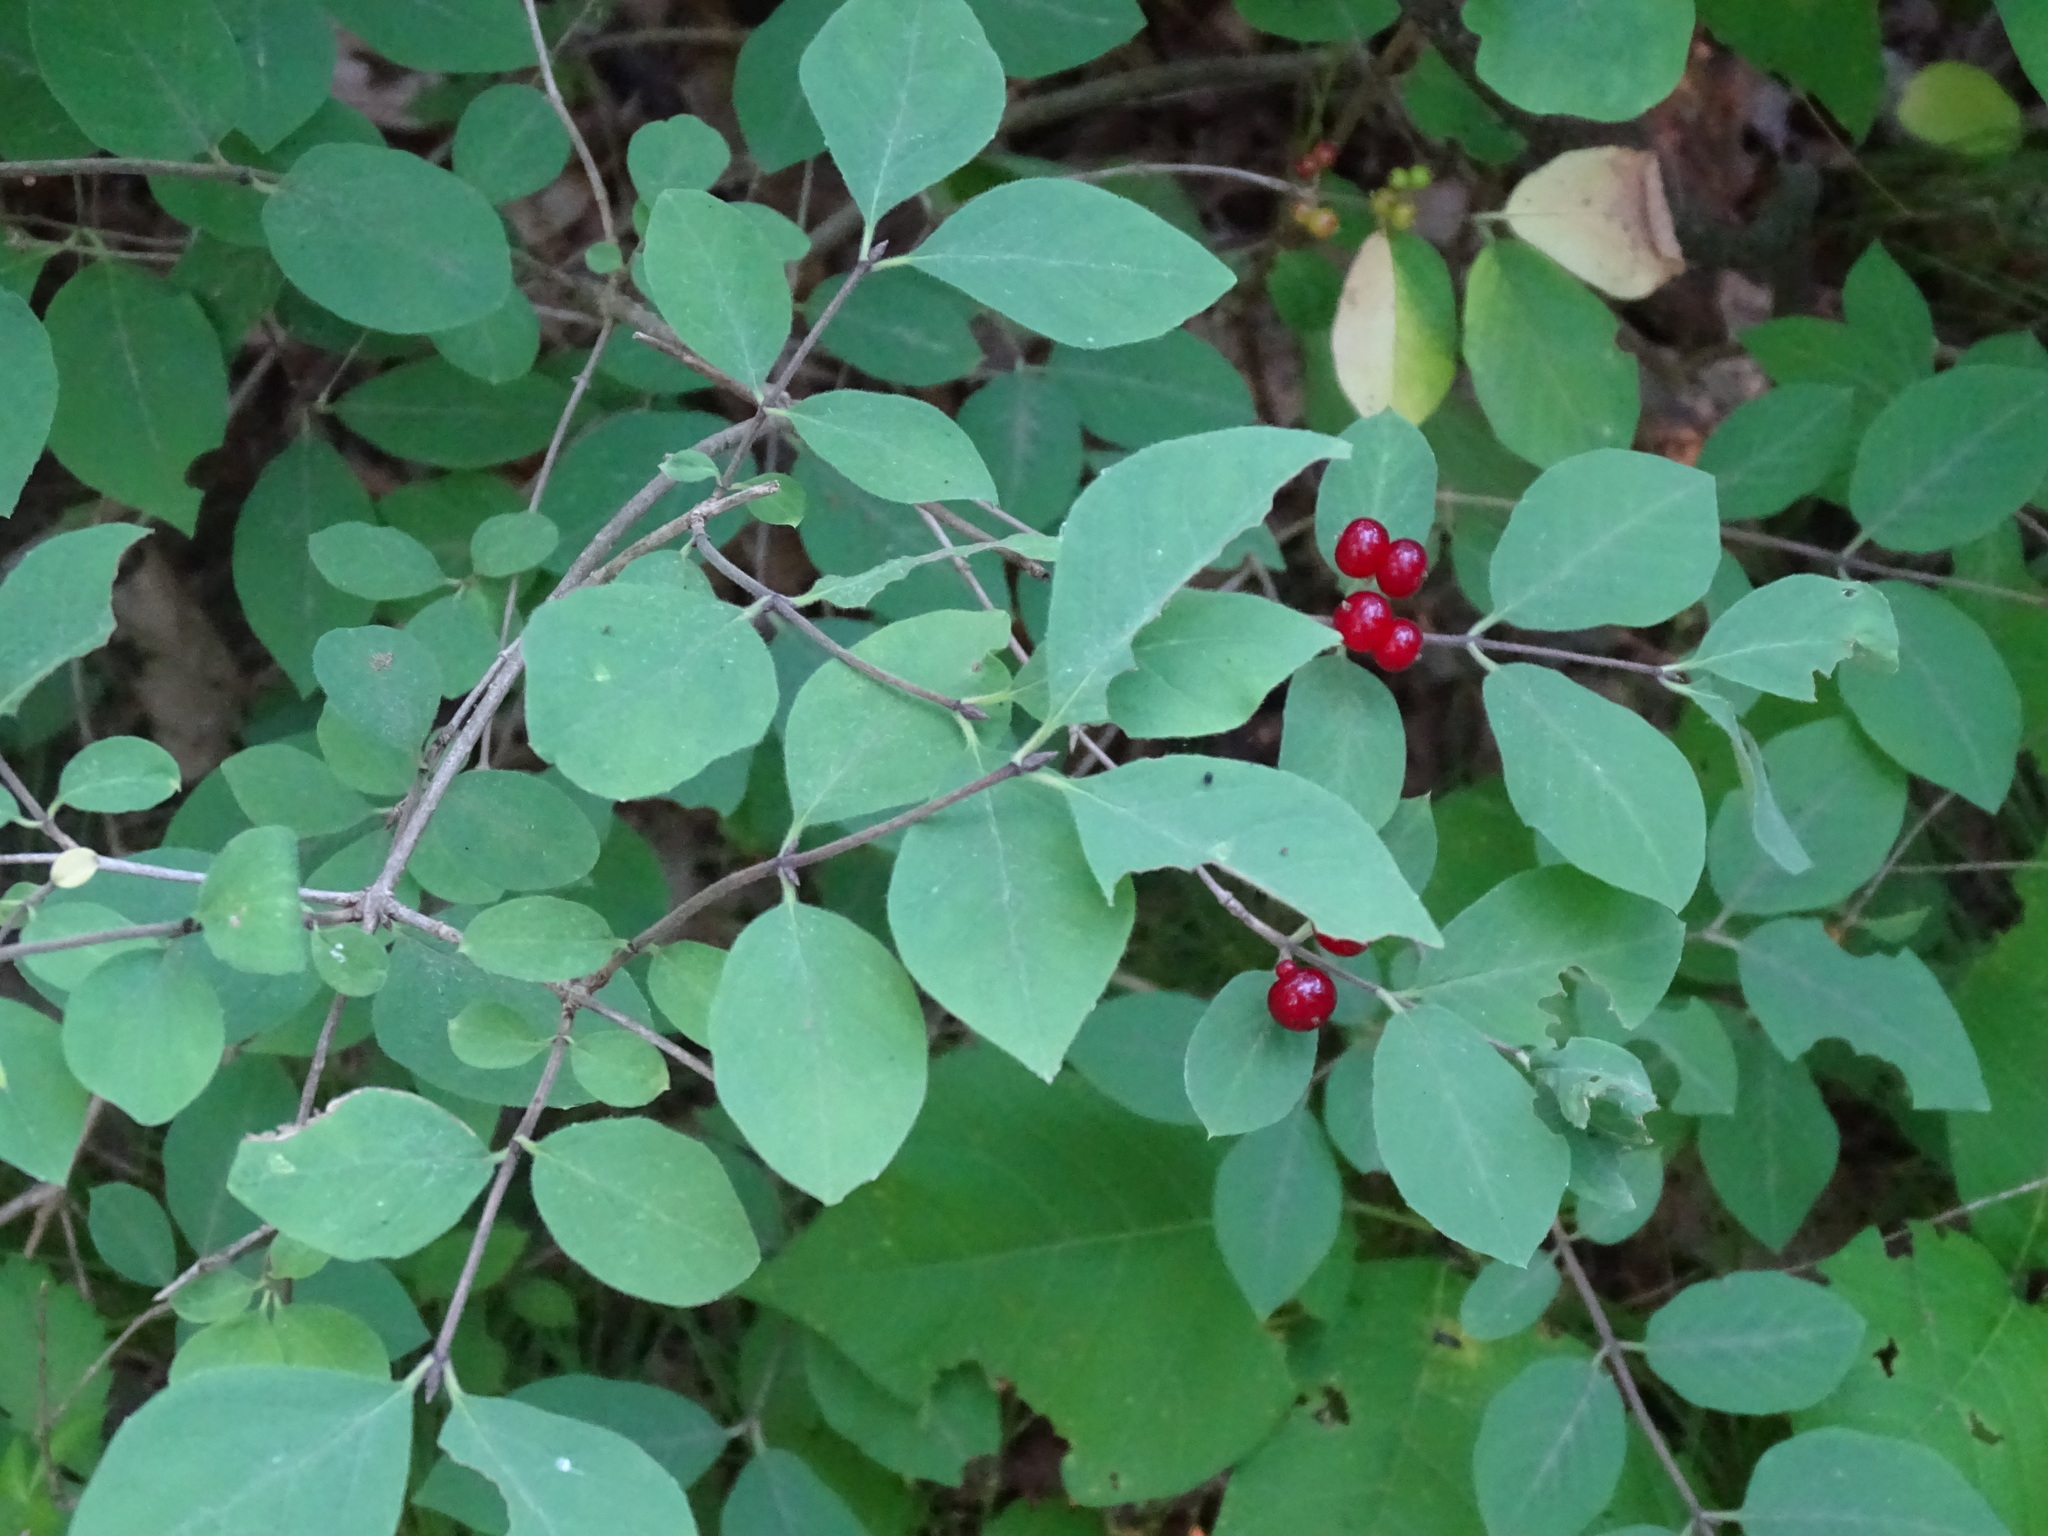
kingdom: Plantae
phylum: Tracheophyta
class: Magnoliopsida
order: Dipsacales
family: Caprifoliaceae
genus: Lonicera
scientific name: Lonicera xylosteum
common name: Fly honeysuckle
